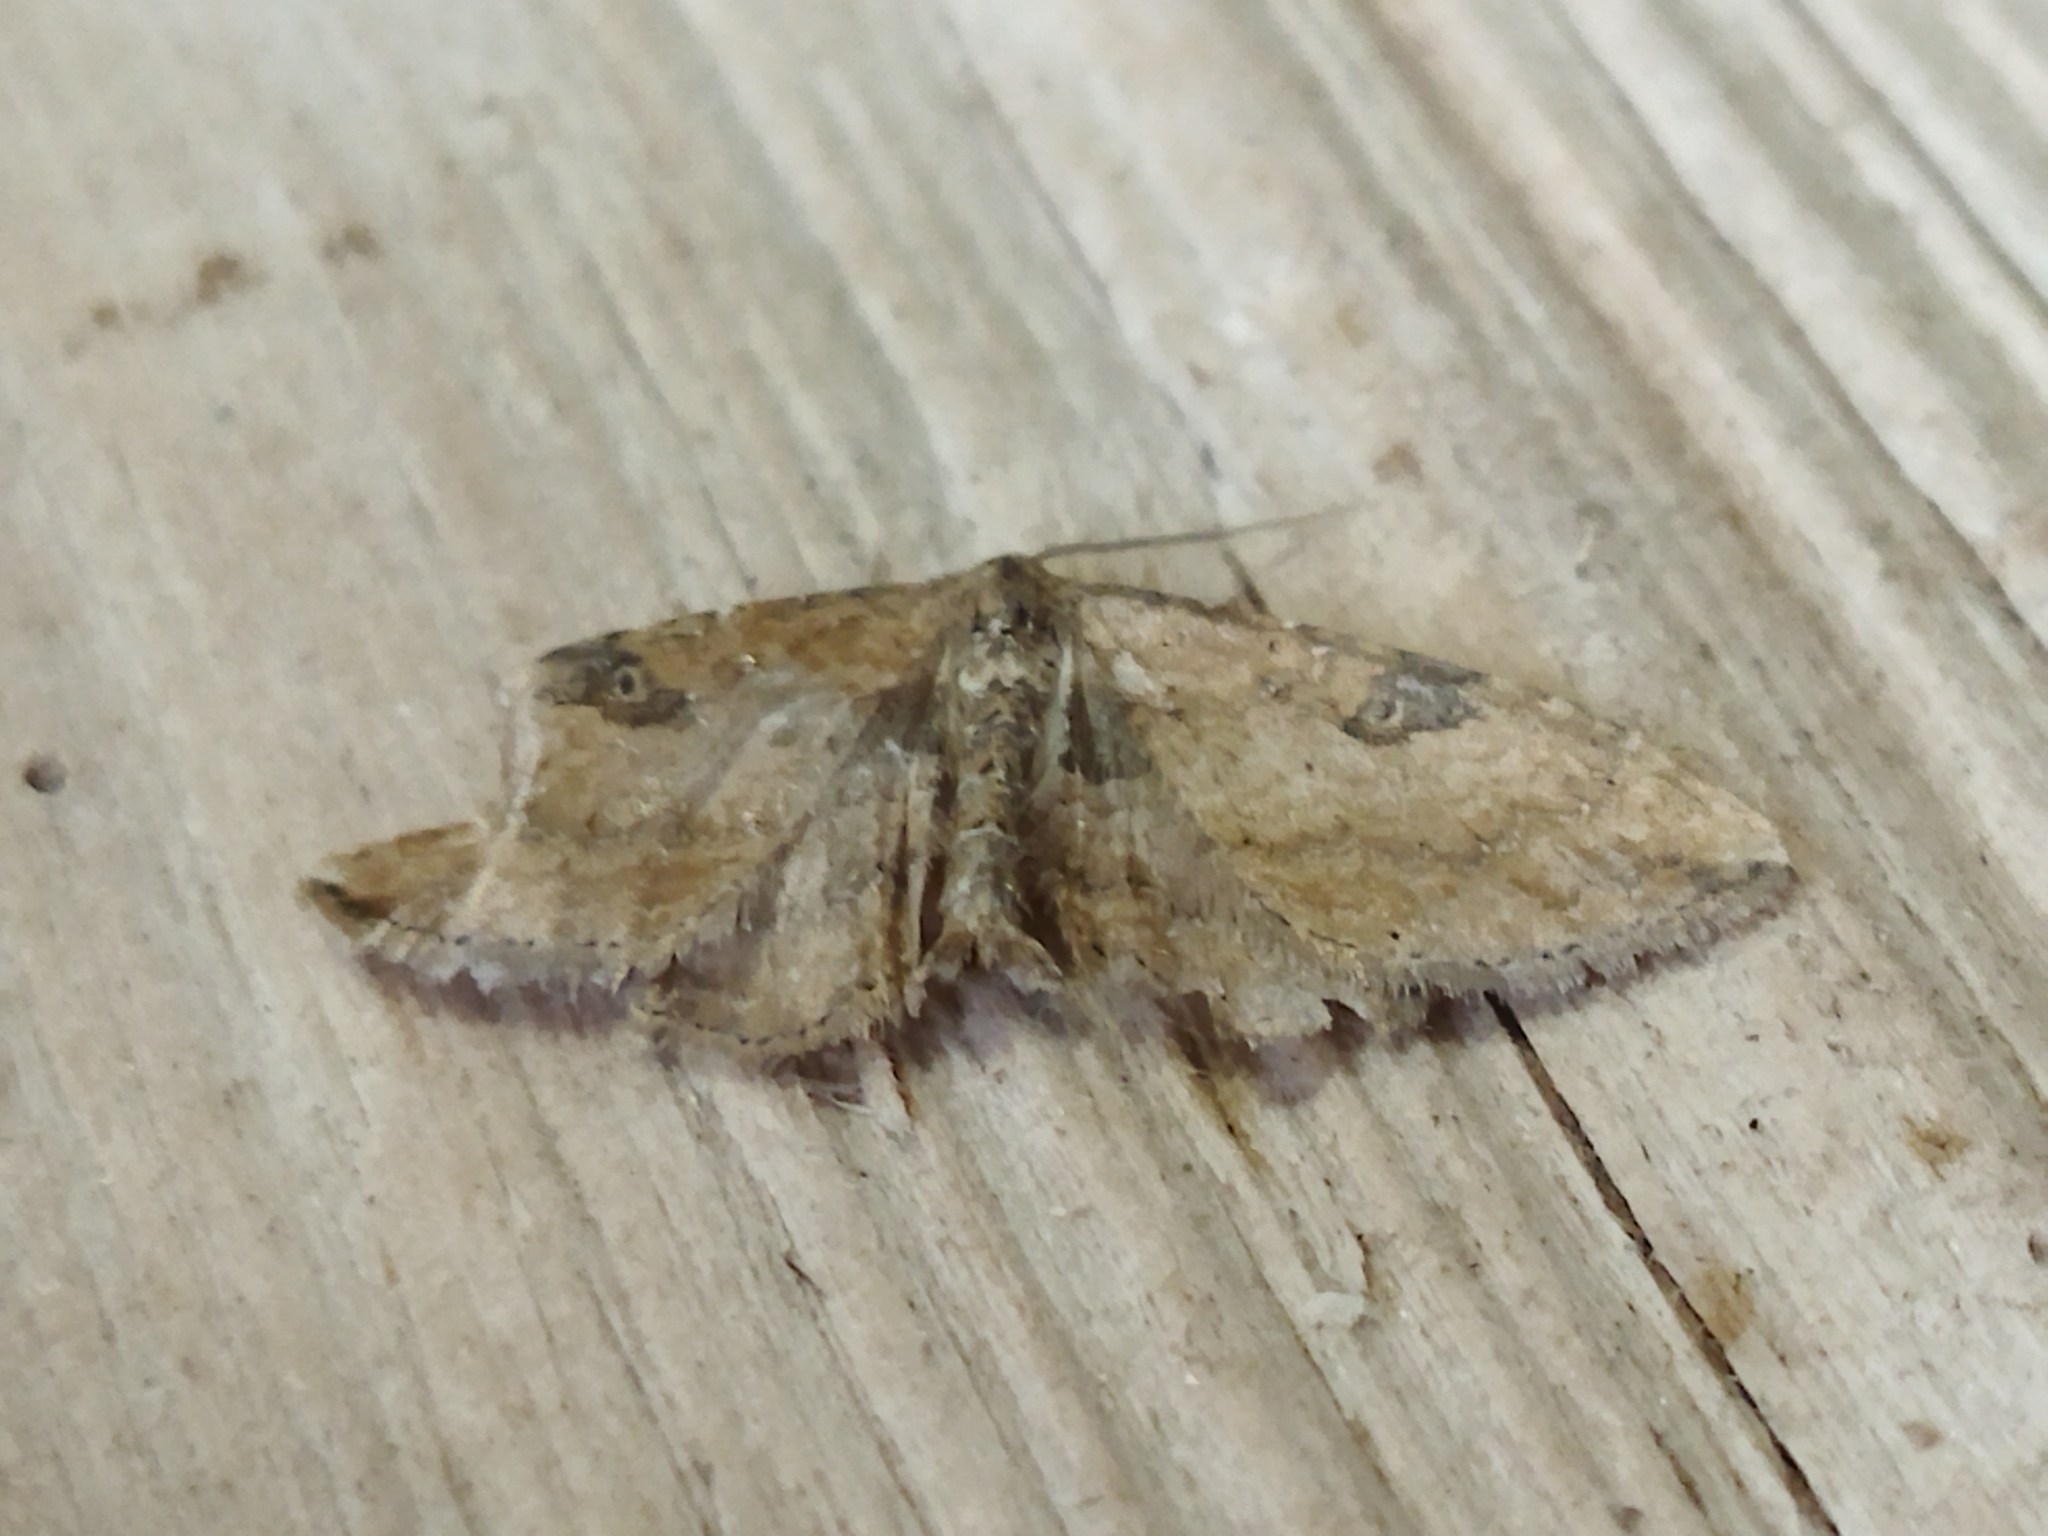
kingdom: Animalia
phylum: Arthropoda
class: Insecta
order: Lepidoptera
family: Geometridae
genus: Orthonama
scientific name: Orthonama obstipata
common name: The gem
